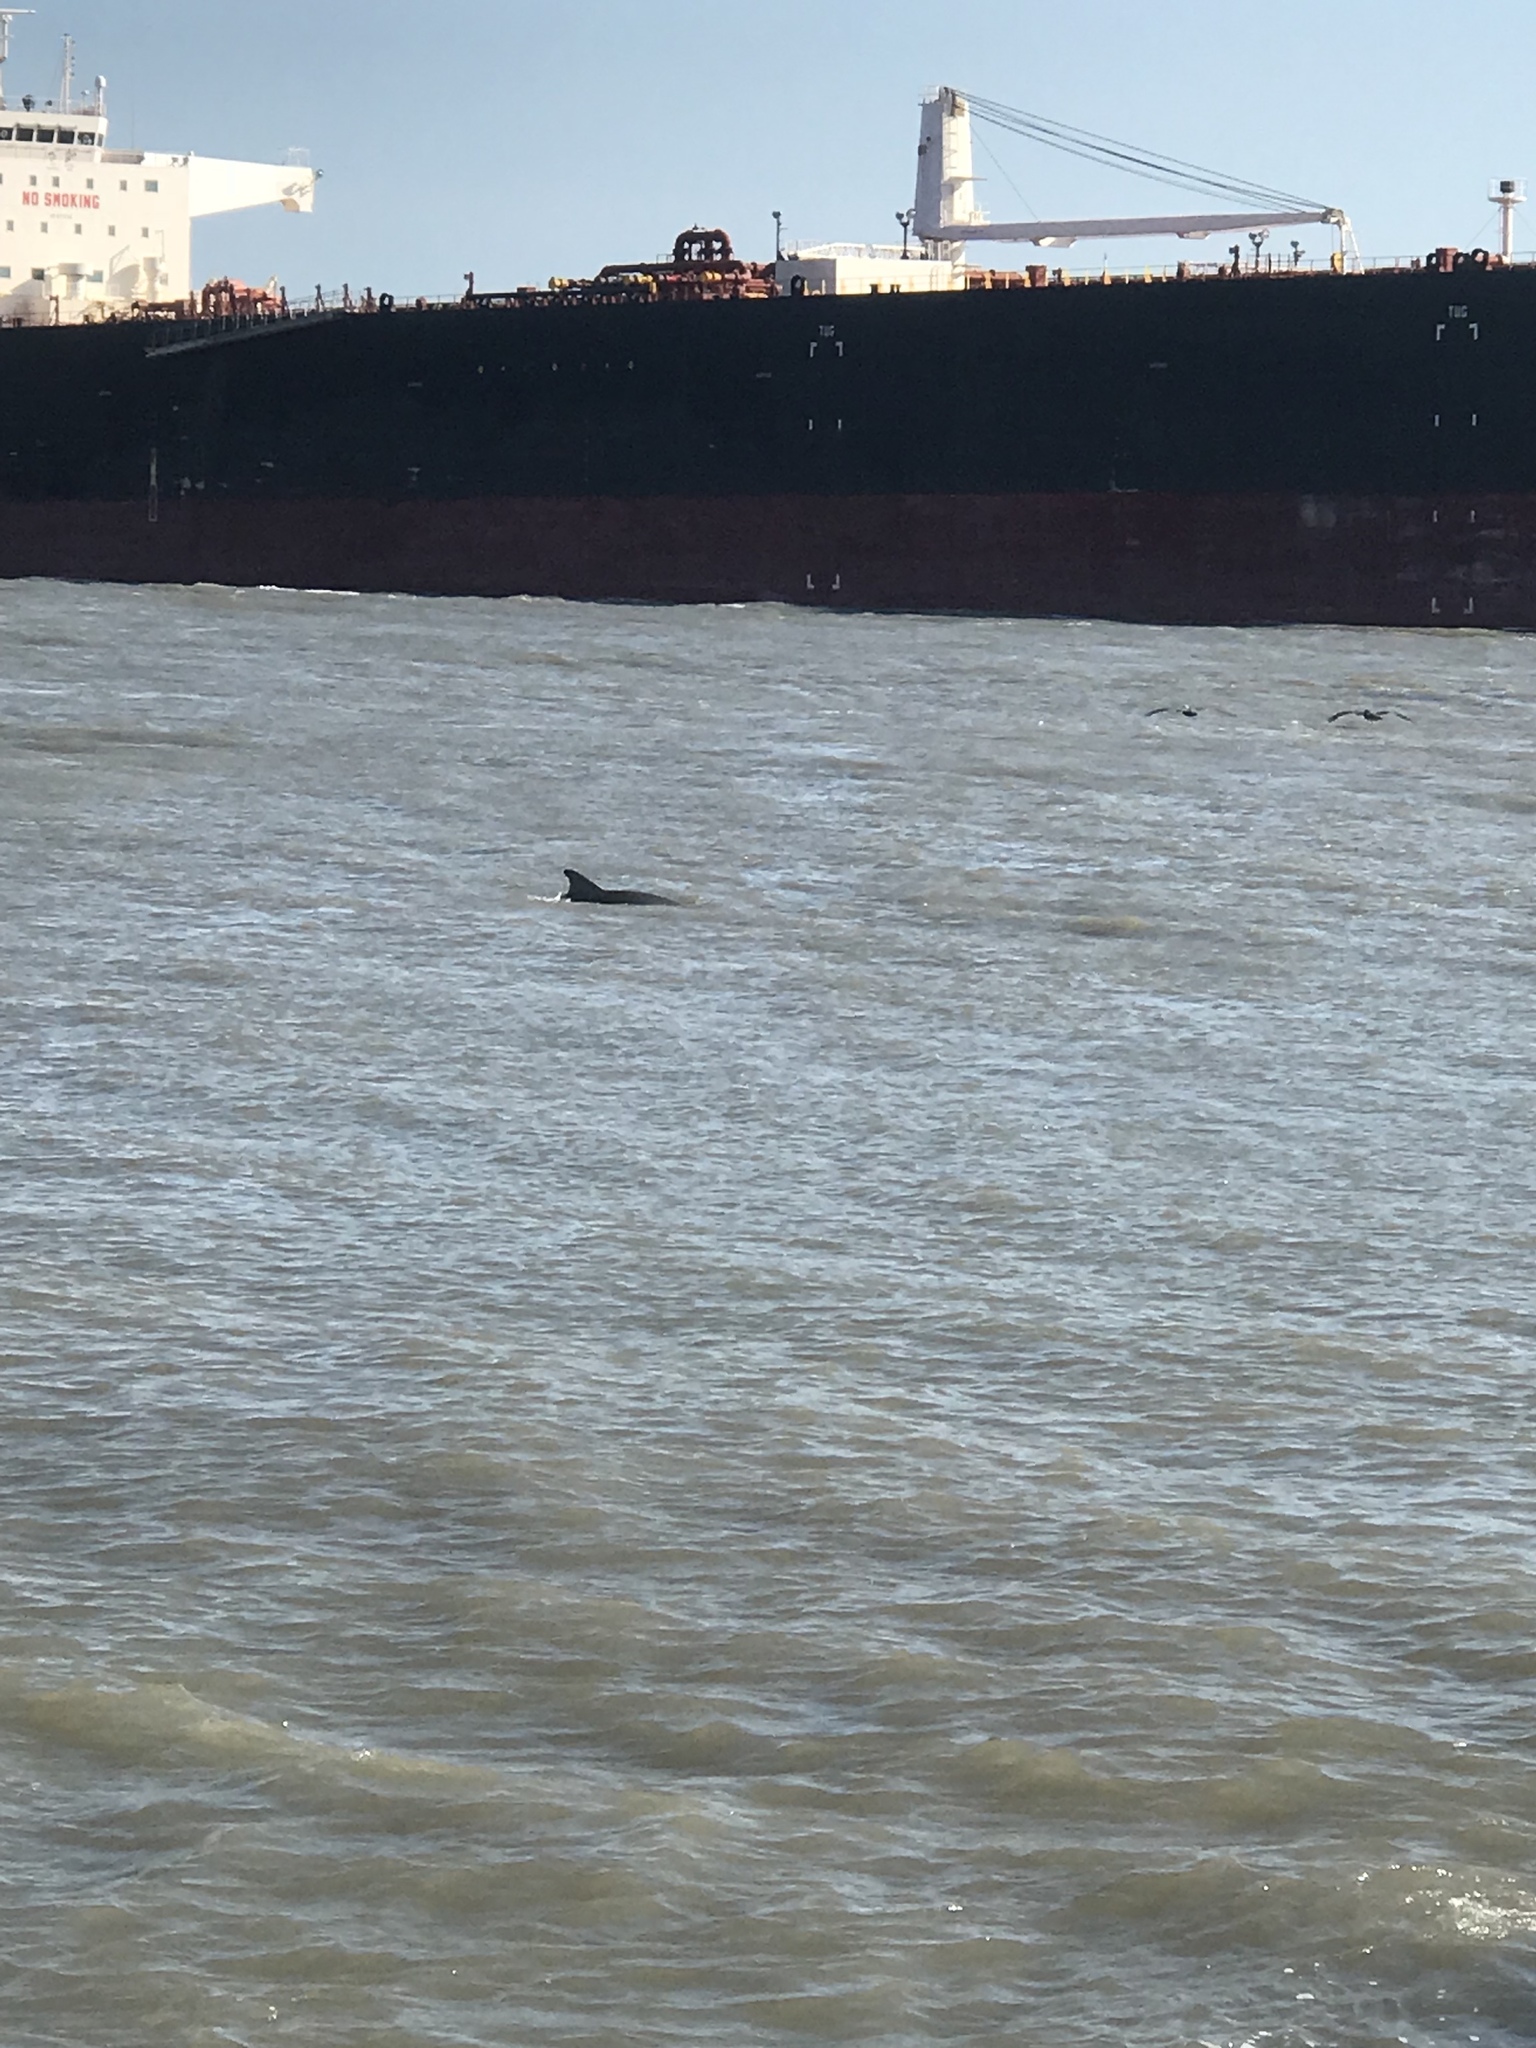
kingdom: Animalia
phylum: Chordata
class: Mammalia
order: Cetacea
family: Delphinidae
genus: Tursiops
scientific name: Tursiops truncatus
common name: Bottlenose dolphin
